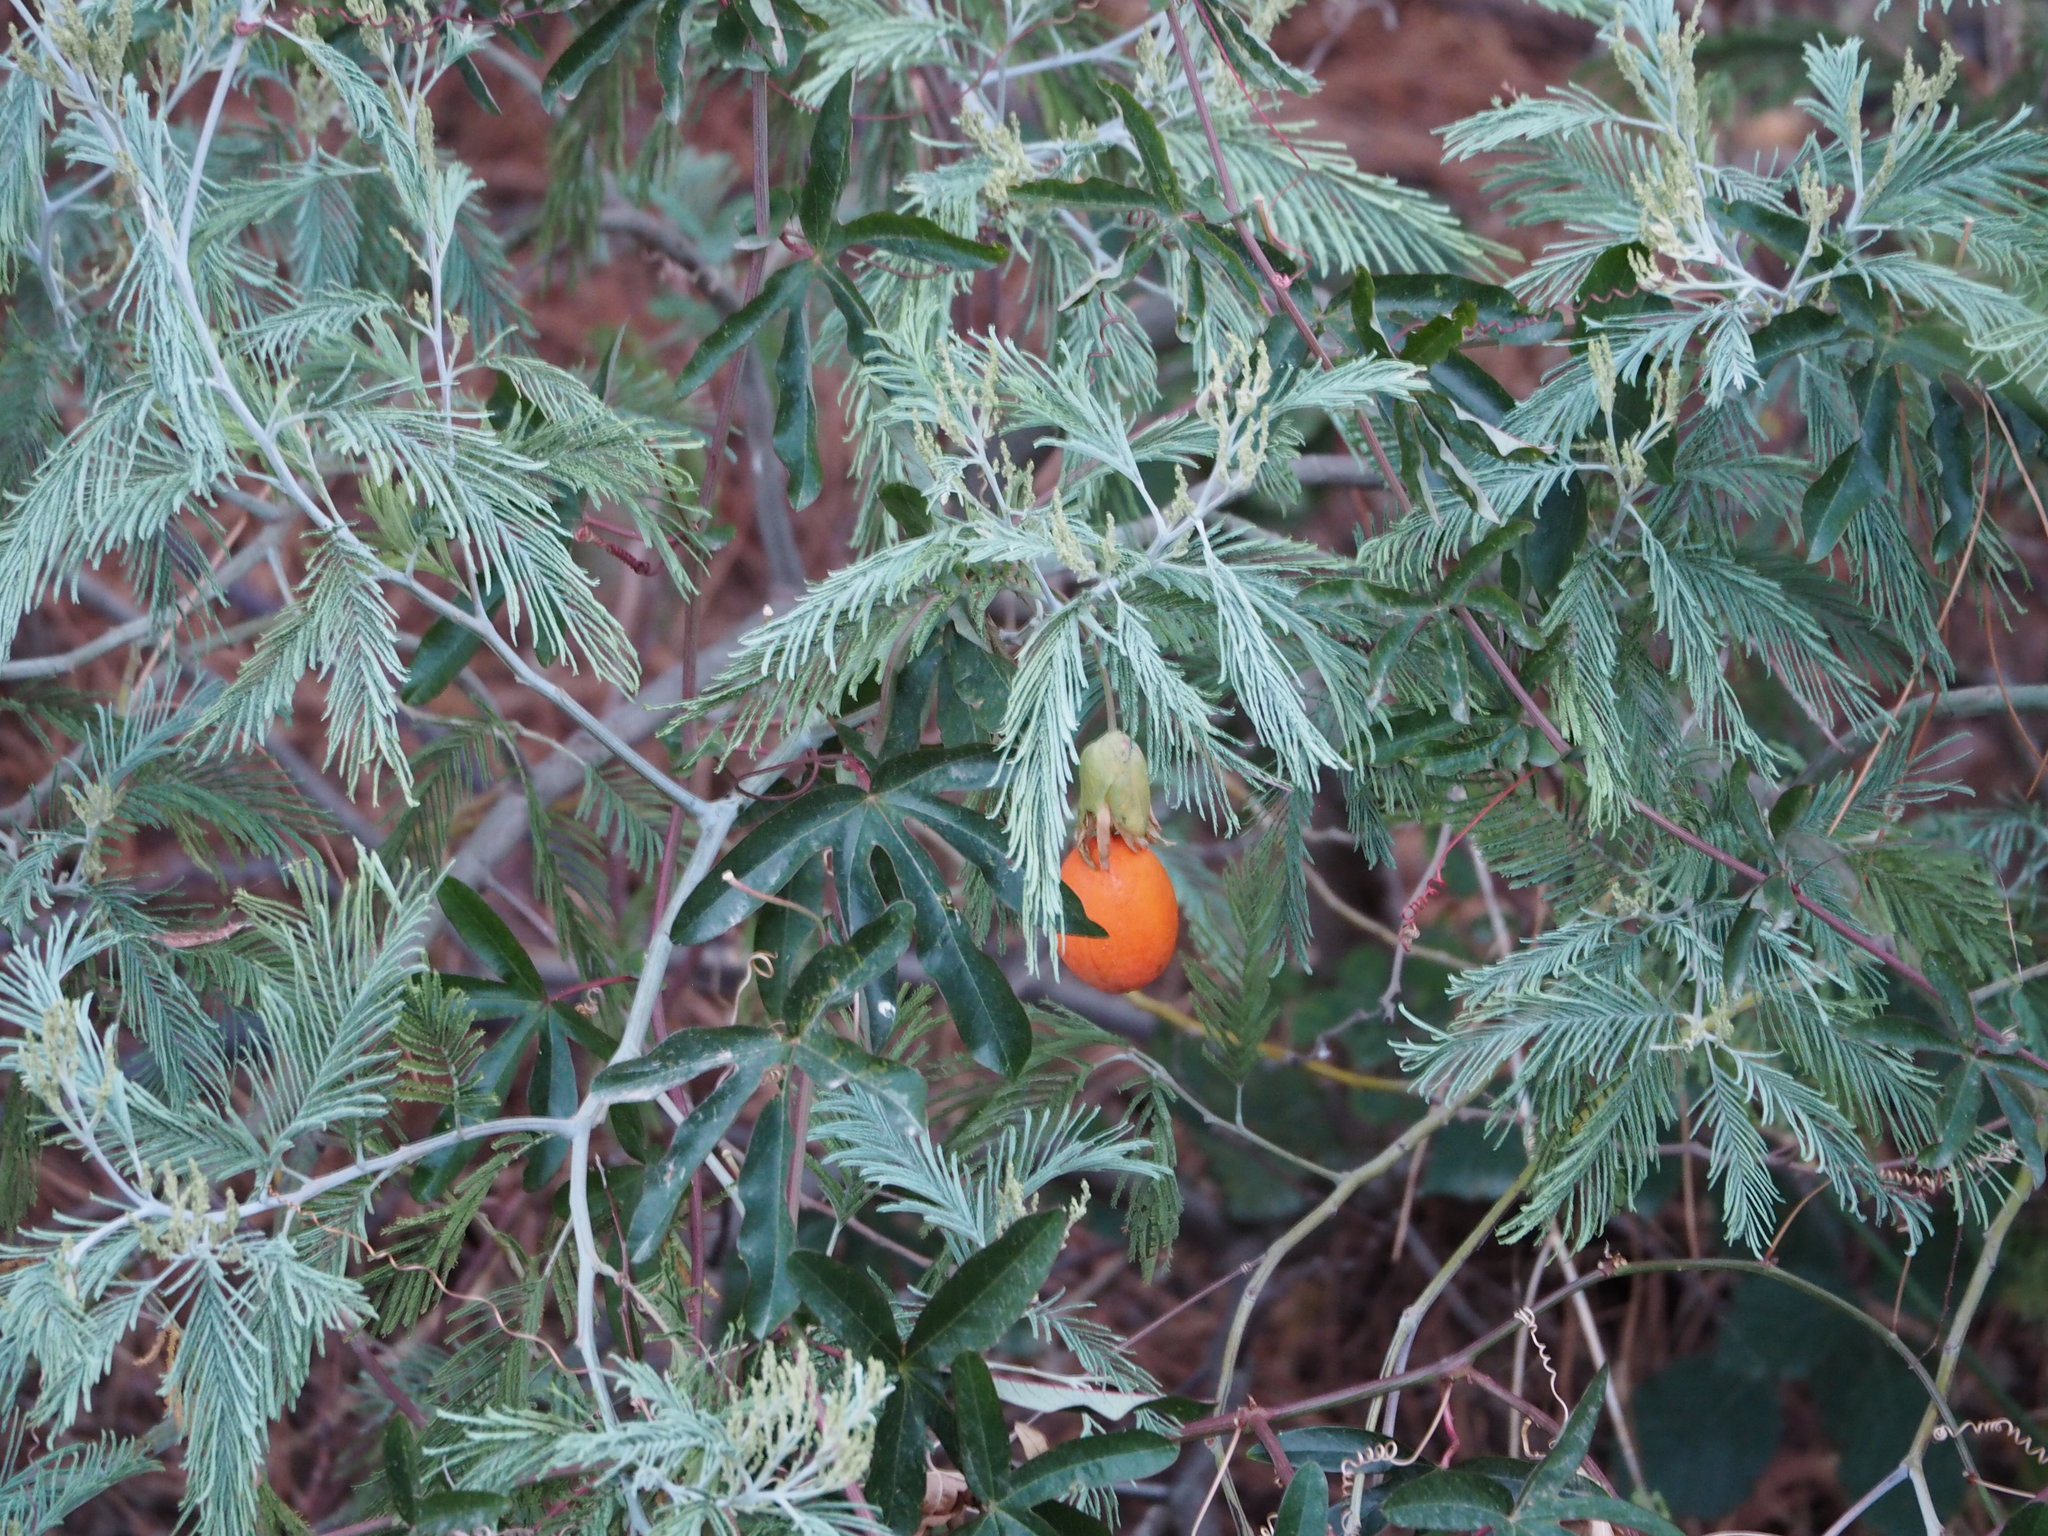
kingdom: Plantae
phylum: Tracheophyta
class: Magnoliopsida
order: Fabales
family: Fabaceae
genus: Acacia
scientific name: Acacia dealbata
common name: Silver wattle
